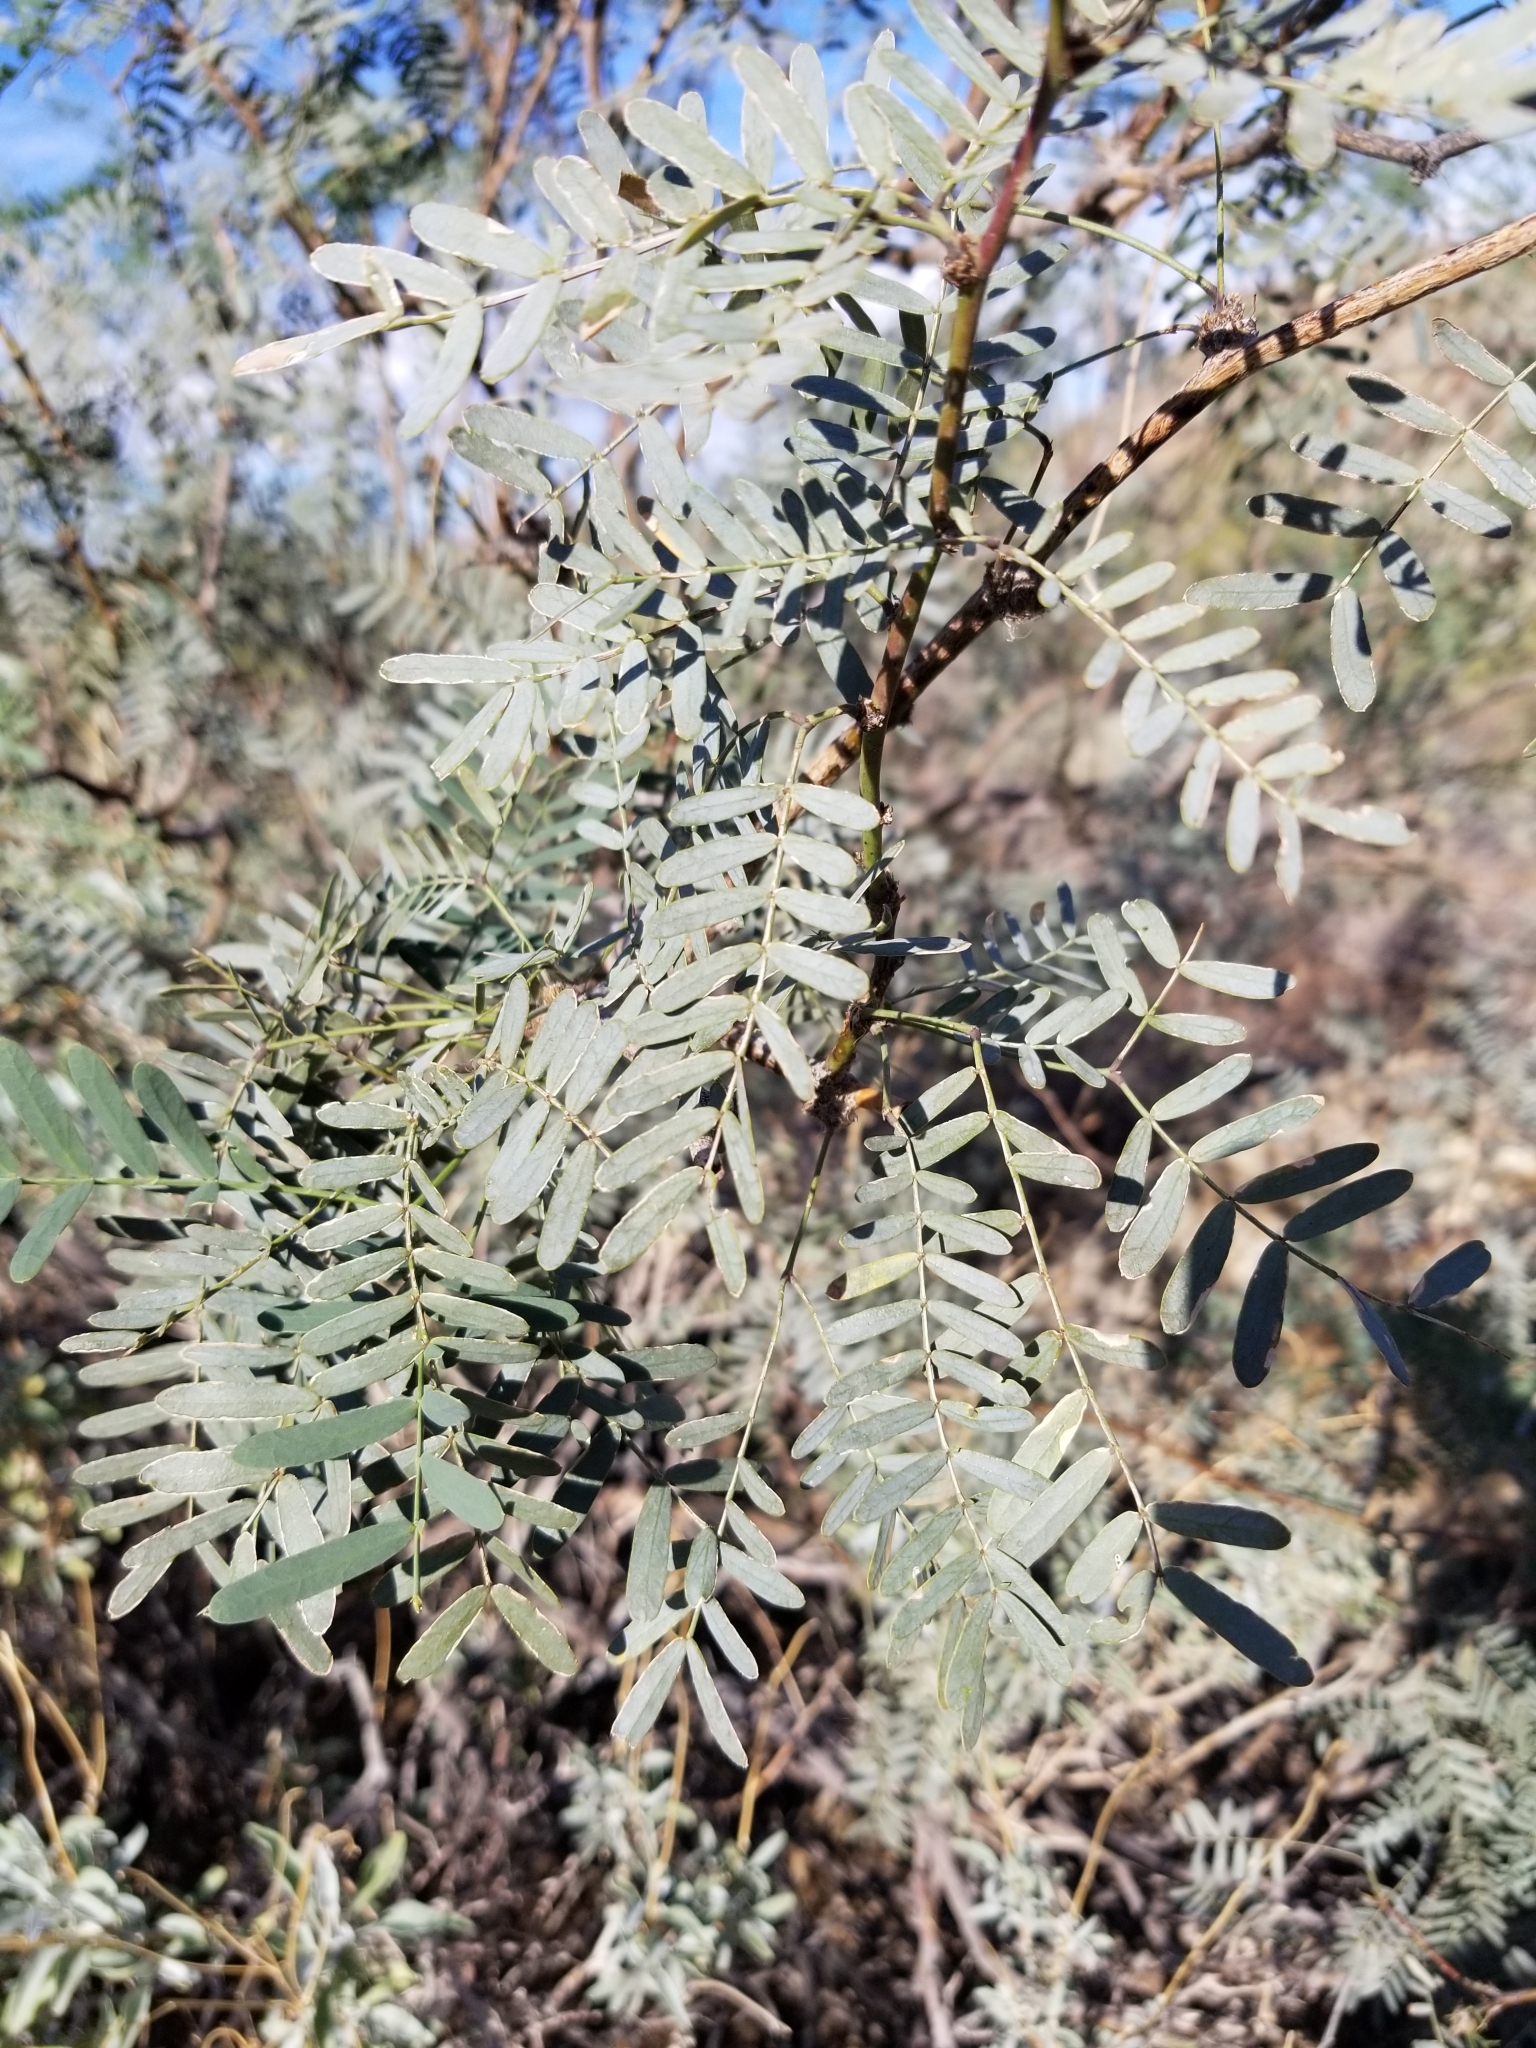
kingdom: Plantae
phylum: Tracheophyta
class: Magnoliopsida
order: Fabales
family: Fabaceae
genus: Prosopis
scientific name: Prosopis pubescens
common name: Screw-bean
